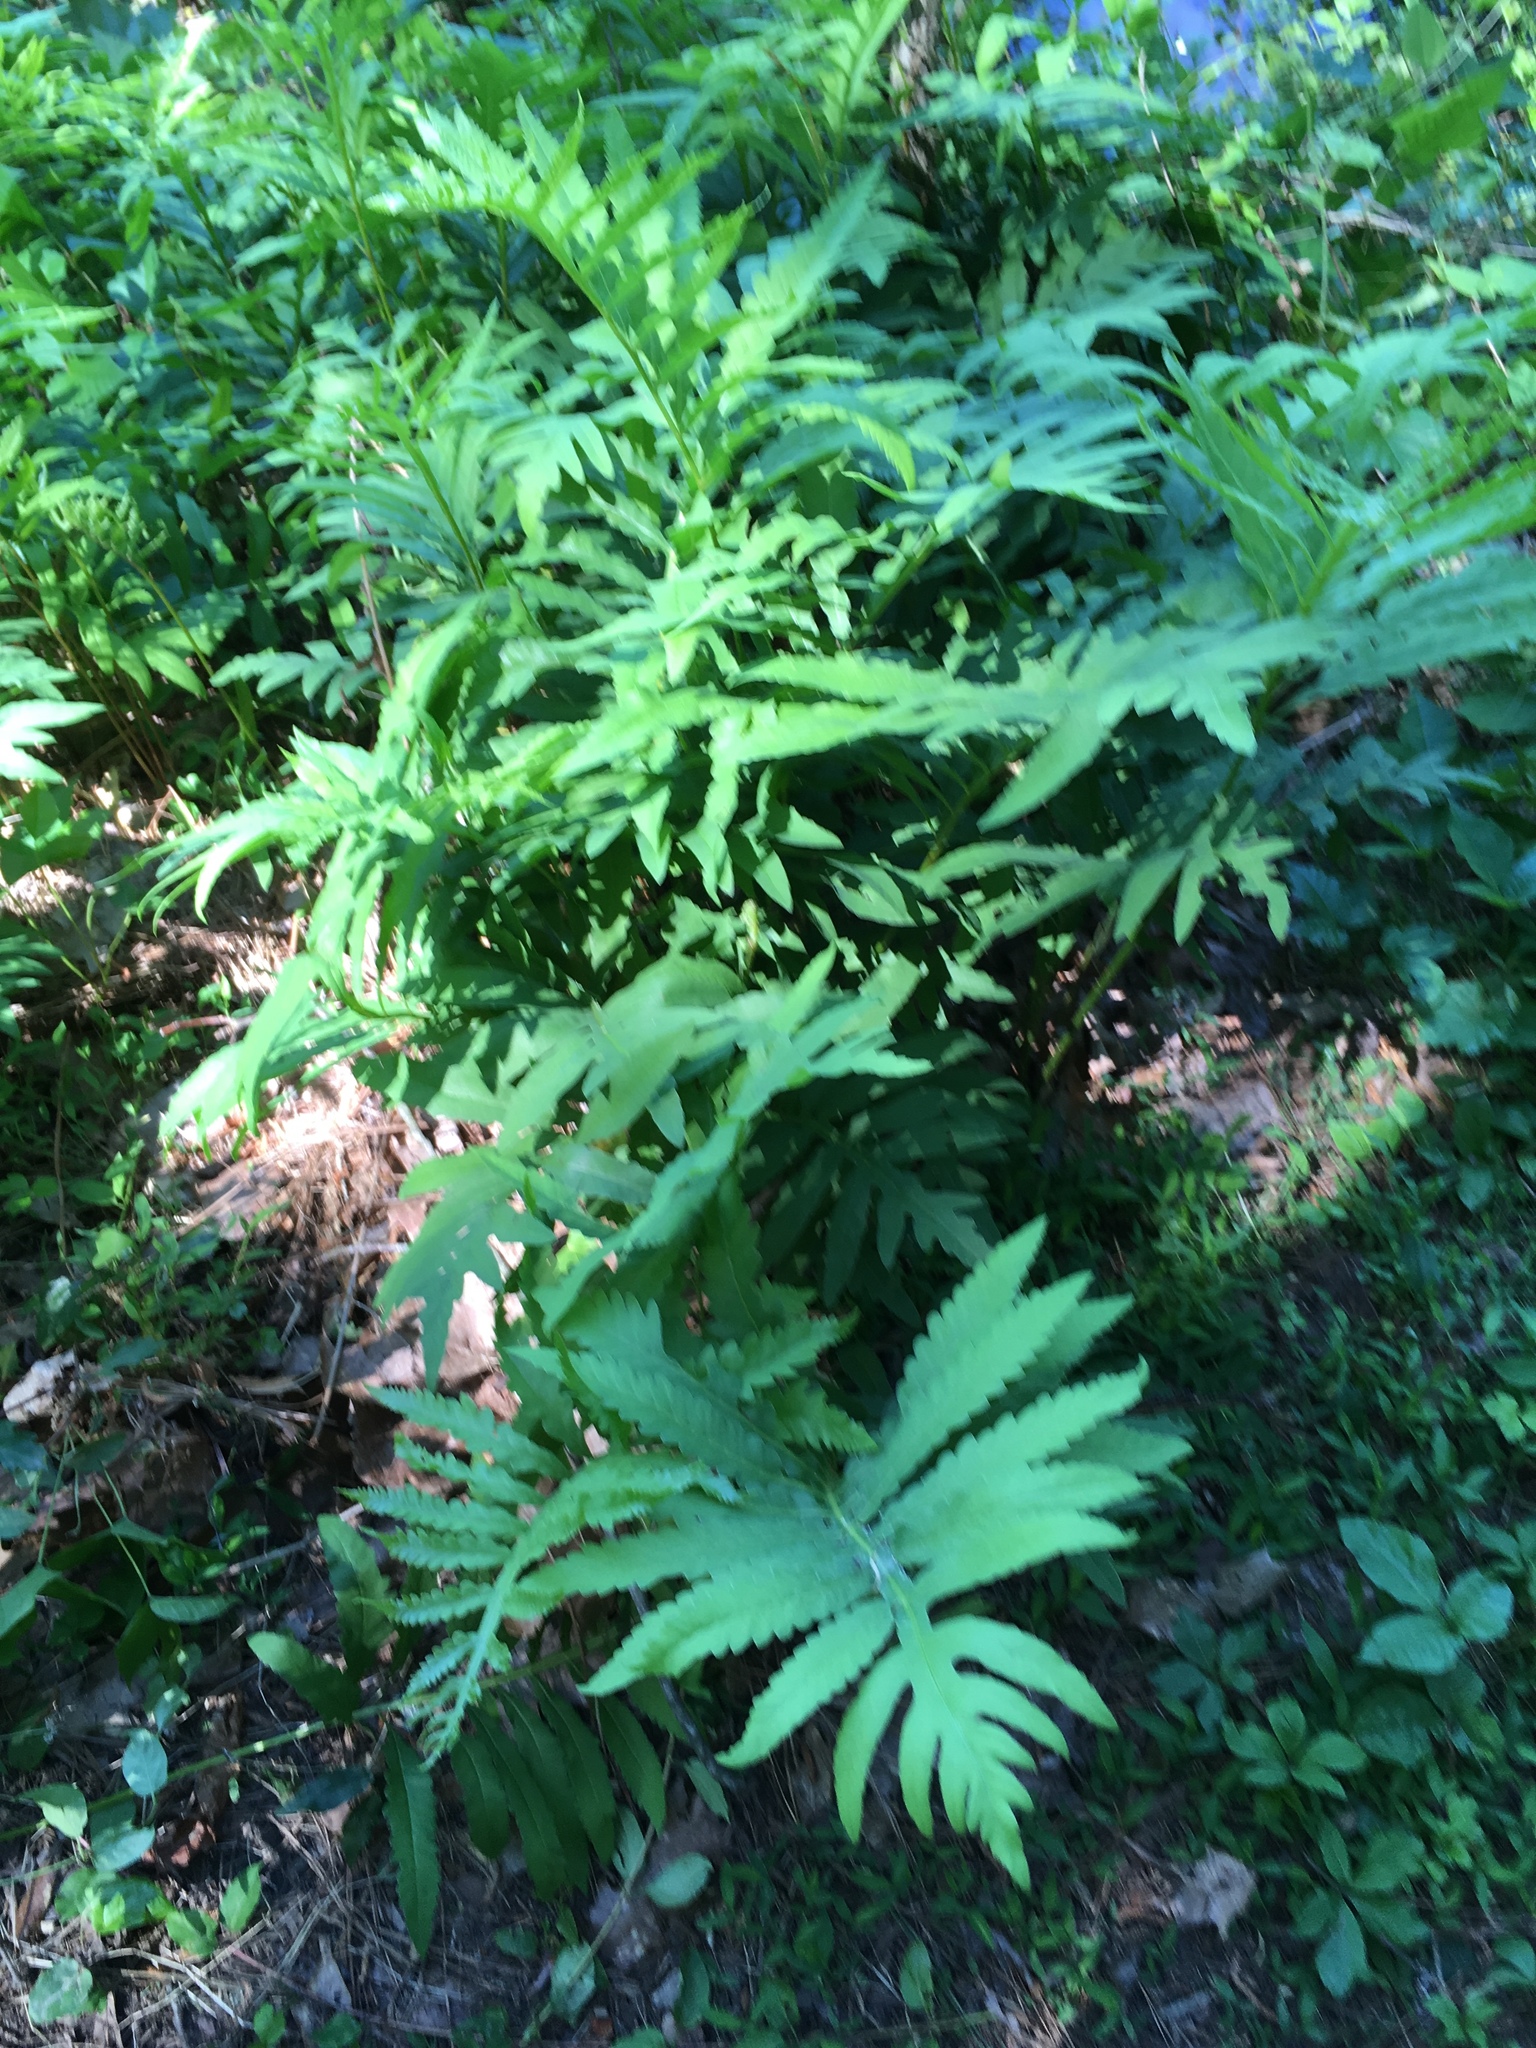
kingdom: Plantae
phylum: Tracheophyta
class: Polypodiopsida
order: Polypodiales
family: Onocleaceae
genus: Onoclea
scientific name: Onoclea sensibilis
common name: Sensitive fern
